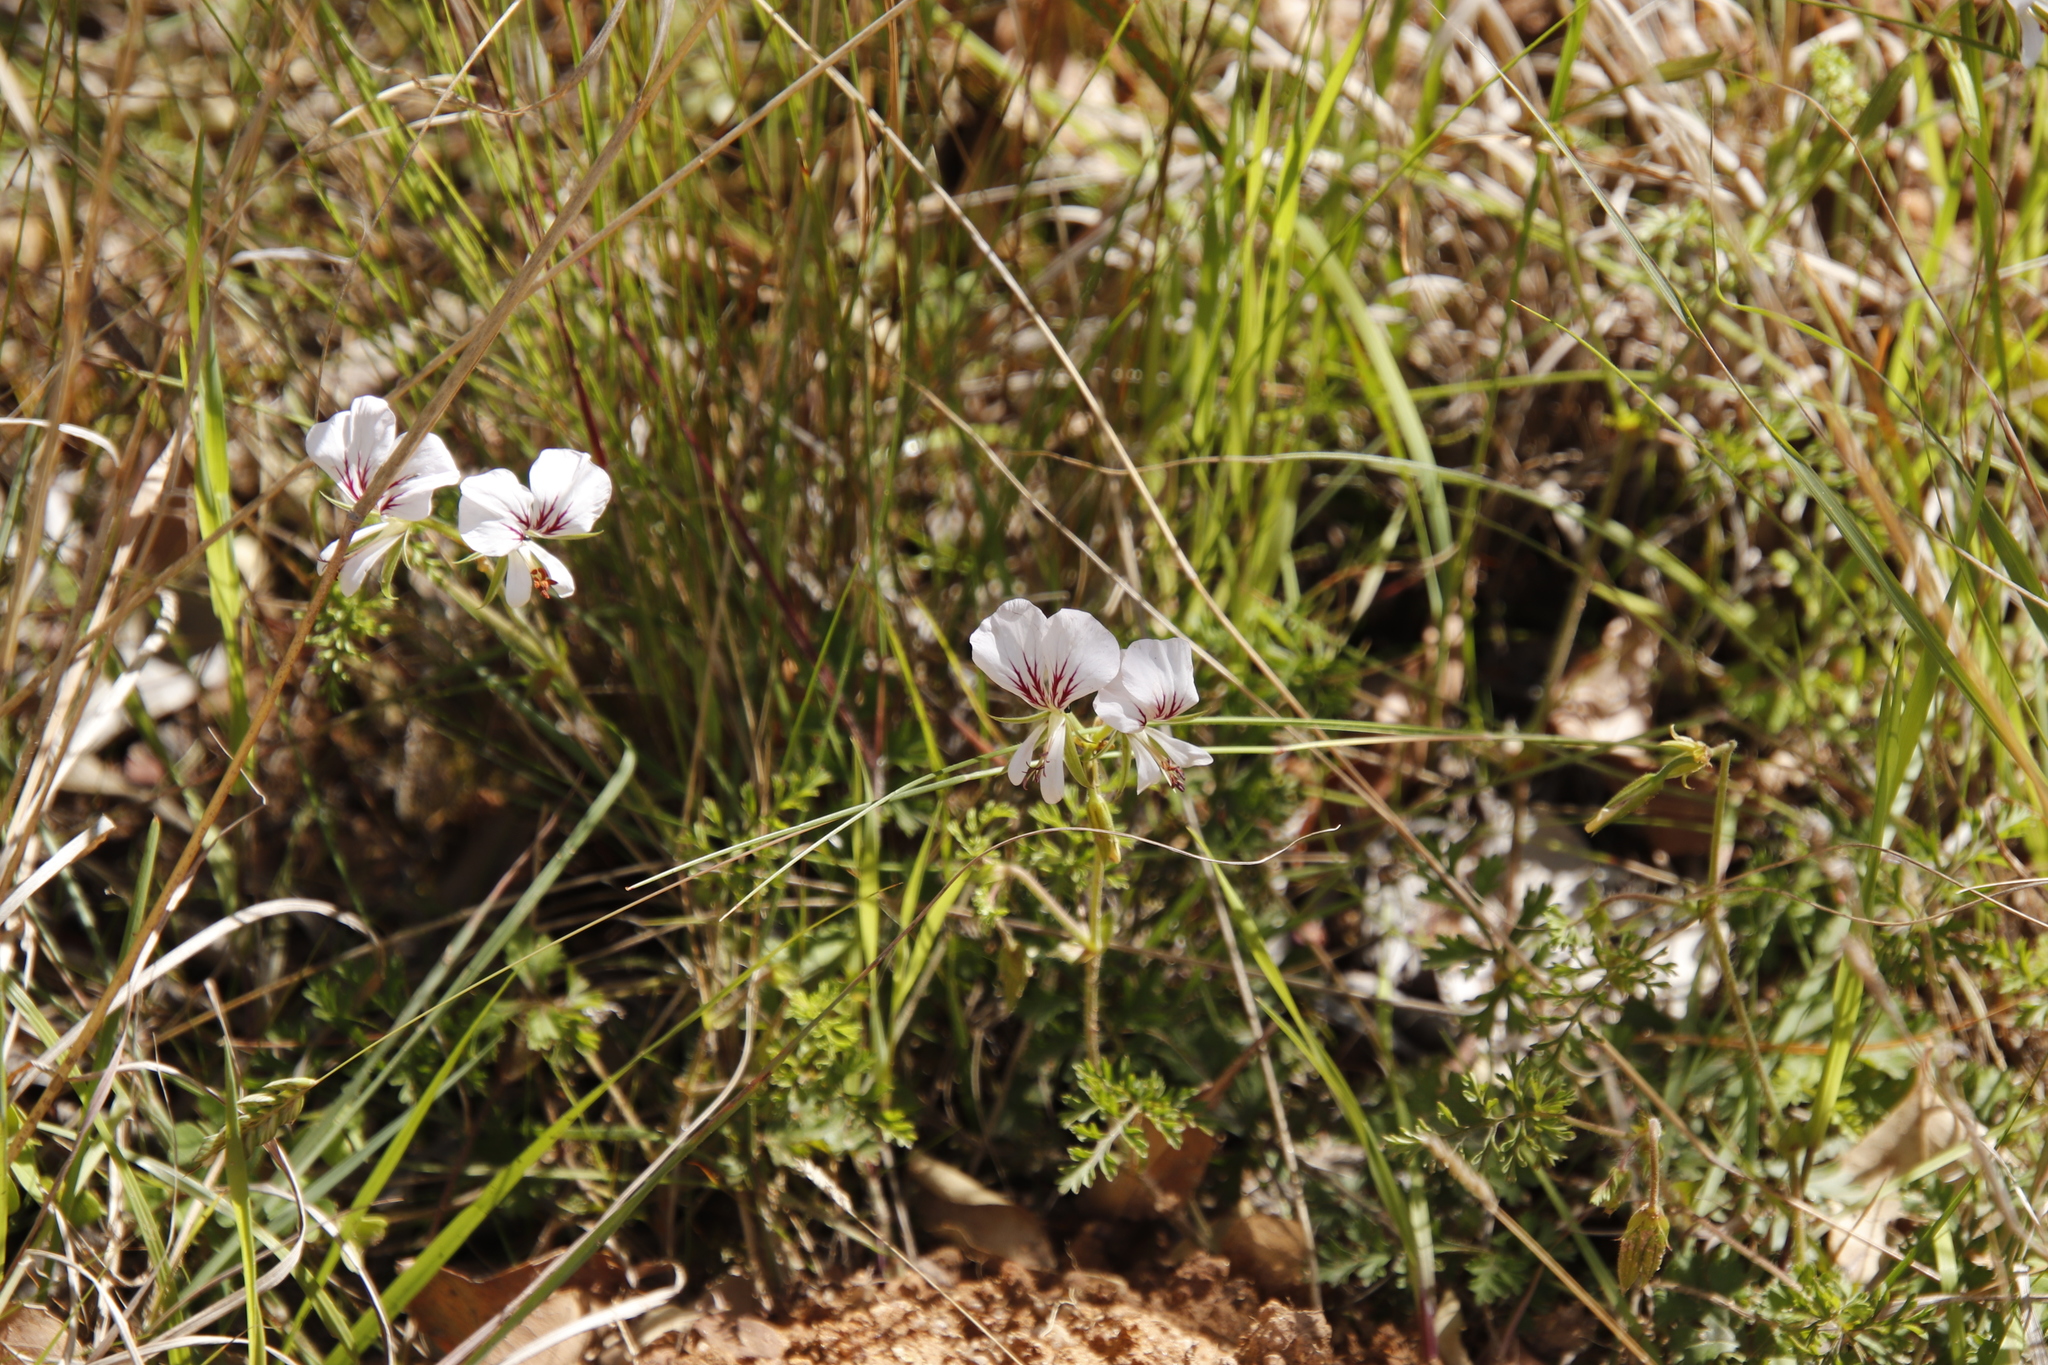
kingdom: Plantae
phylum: Tracheophyta
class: Magnoliopsida
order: Geraniales
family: Geraniaceae
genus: Pelargonium
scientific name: Pelargonium myrrhifolium
